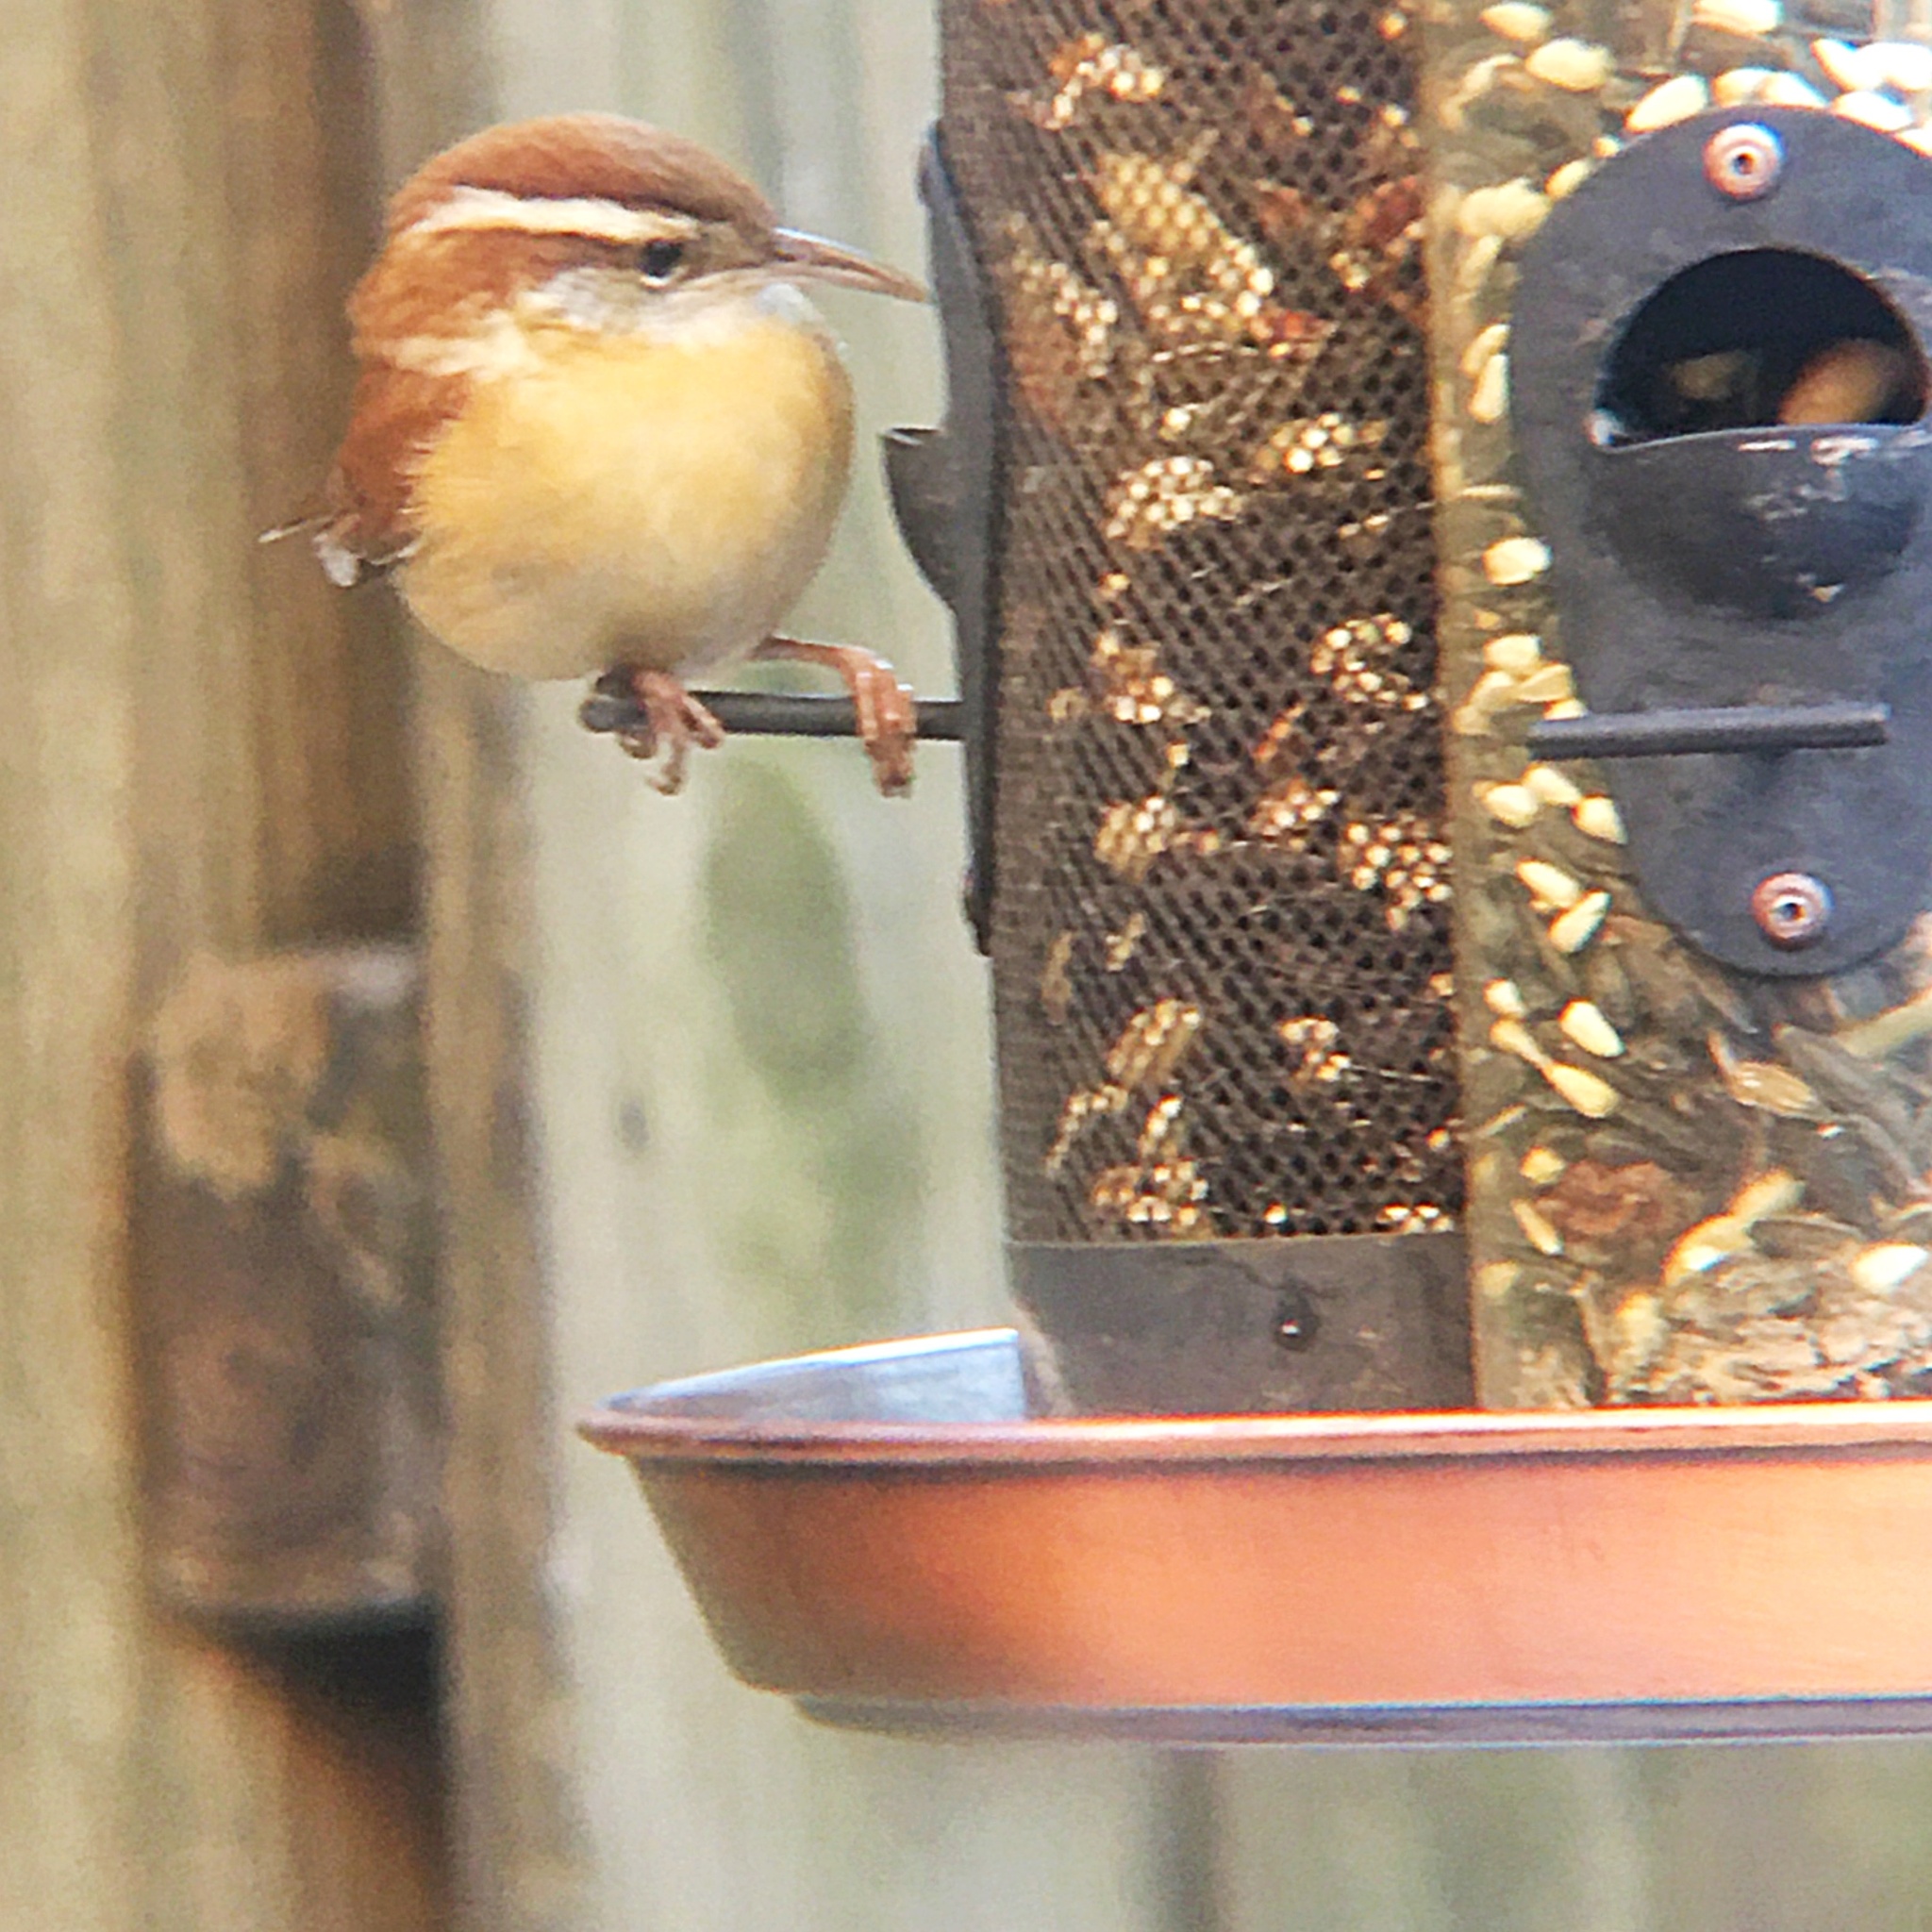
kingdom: Animalia
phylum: Chordata
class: Aves
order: Passeriformes
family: Troglodytidae
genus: Thryothorus
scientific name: Thryothorus ludovicianus
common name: Carolina wren
